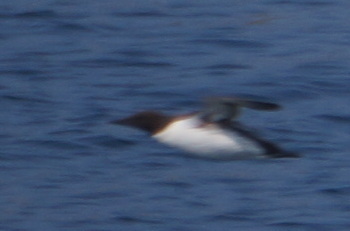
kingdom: Animalia
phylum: Chordata
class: Aves
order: Charadriiformes
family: Alcidae
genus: Uria
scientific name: Uria aalge
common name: Common murre
